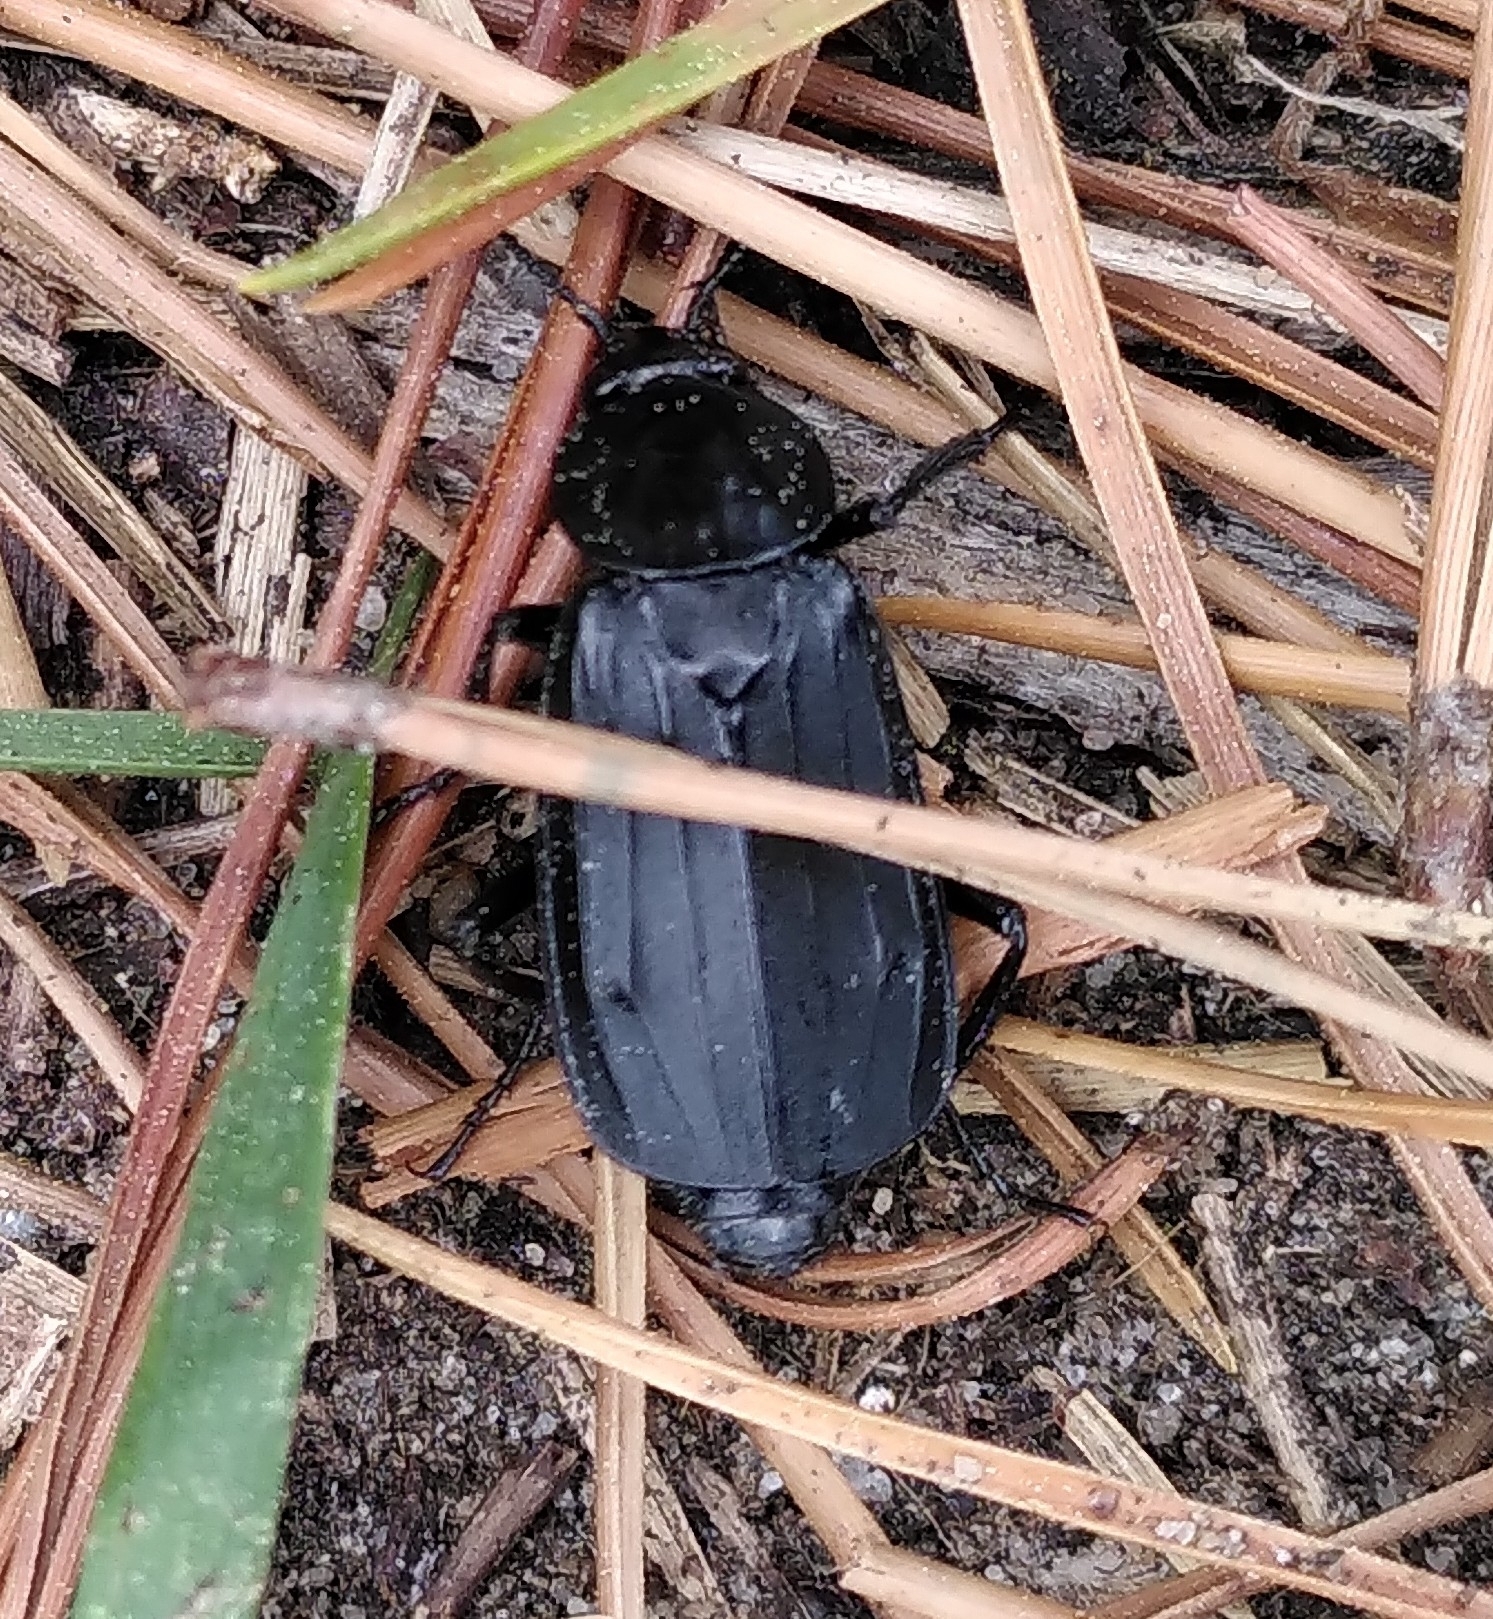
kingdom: Animalia
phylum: Arthropoda
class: Insecta
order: Coleoptera
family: Staphylinidae
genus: Necrodes
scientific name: Necrodes littoralis
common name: Shore sexton beetle
